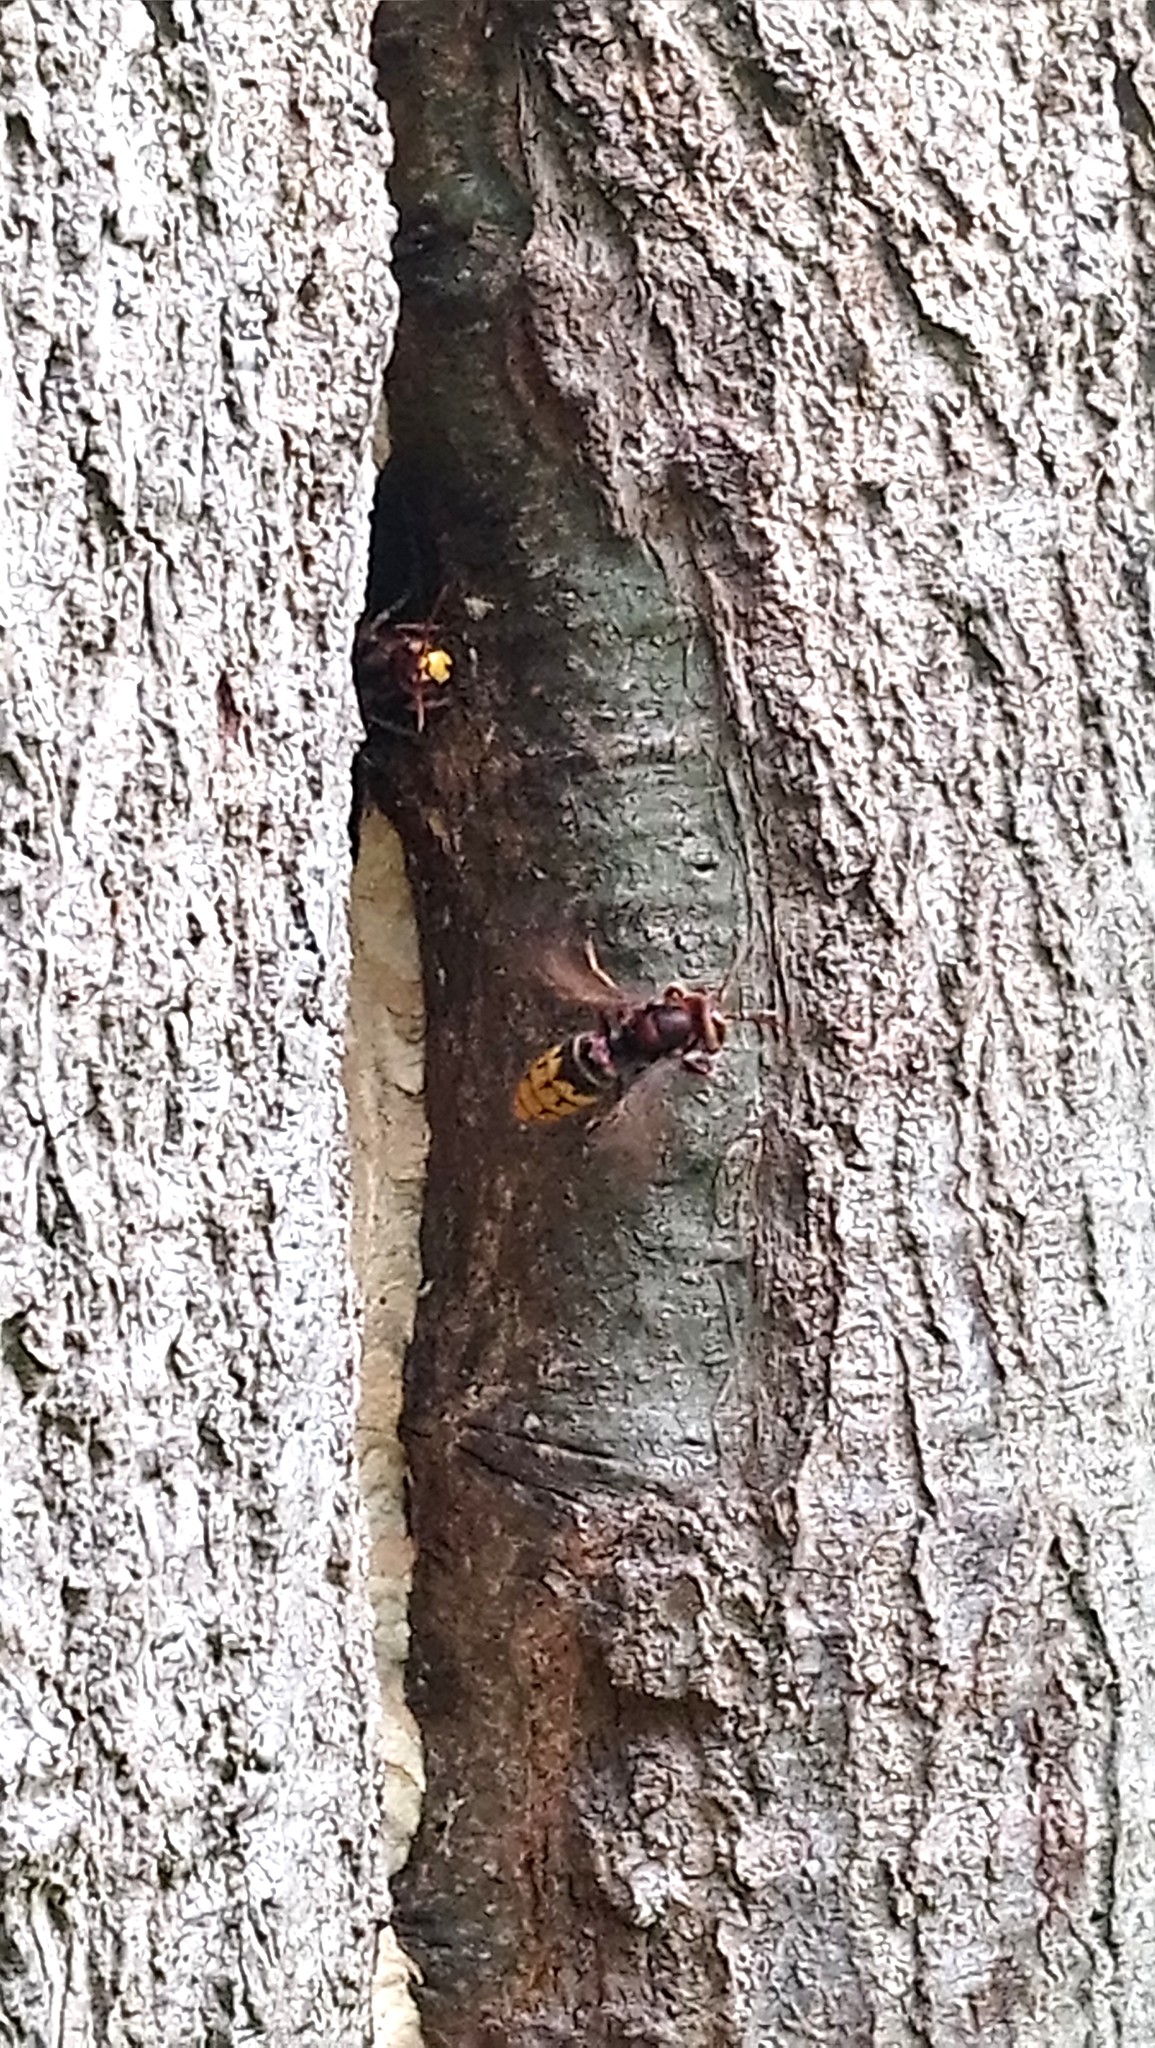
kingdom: Animalia
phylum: Arthropoda
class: Insecta
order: Hymenoptera
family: Vespidae
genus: Vespa
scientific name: Vespa crabro
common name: Hornet
